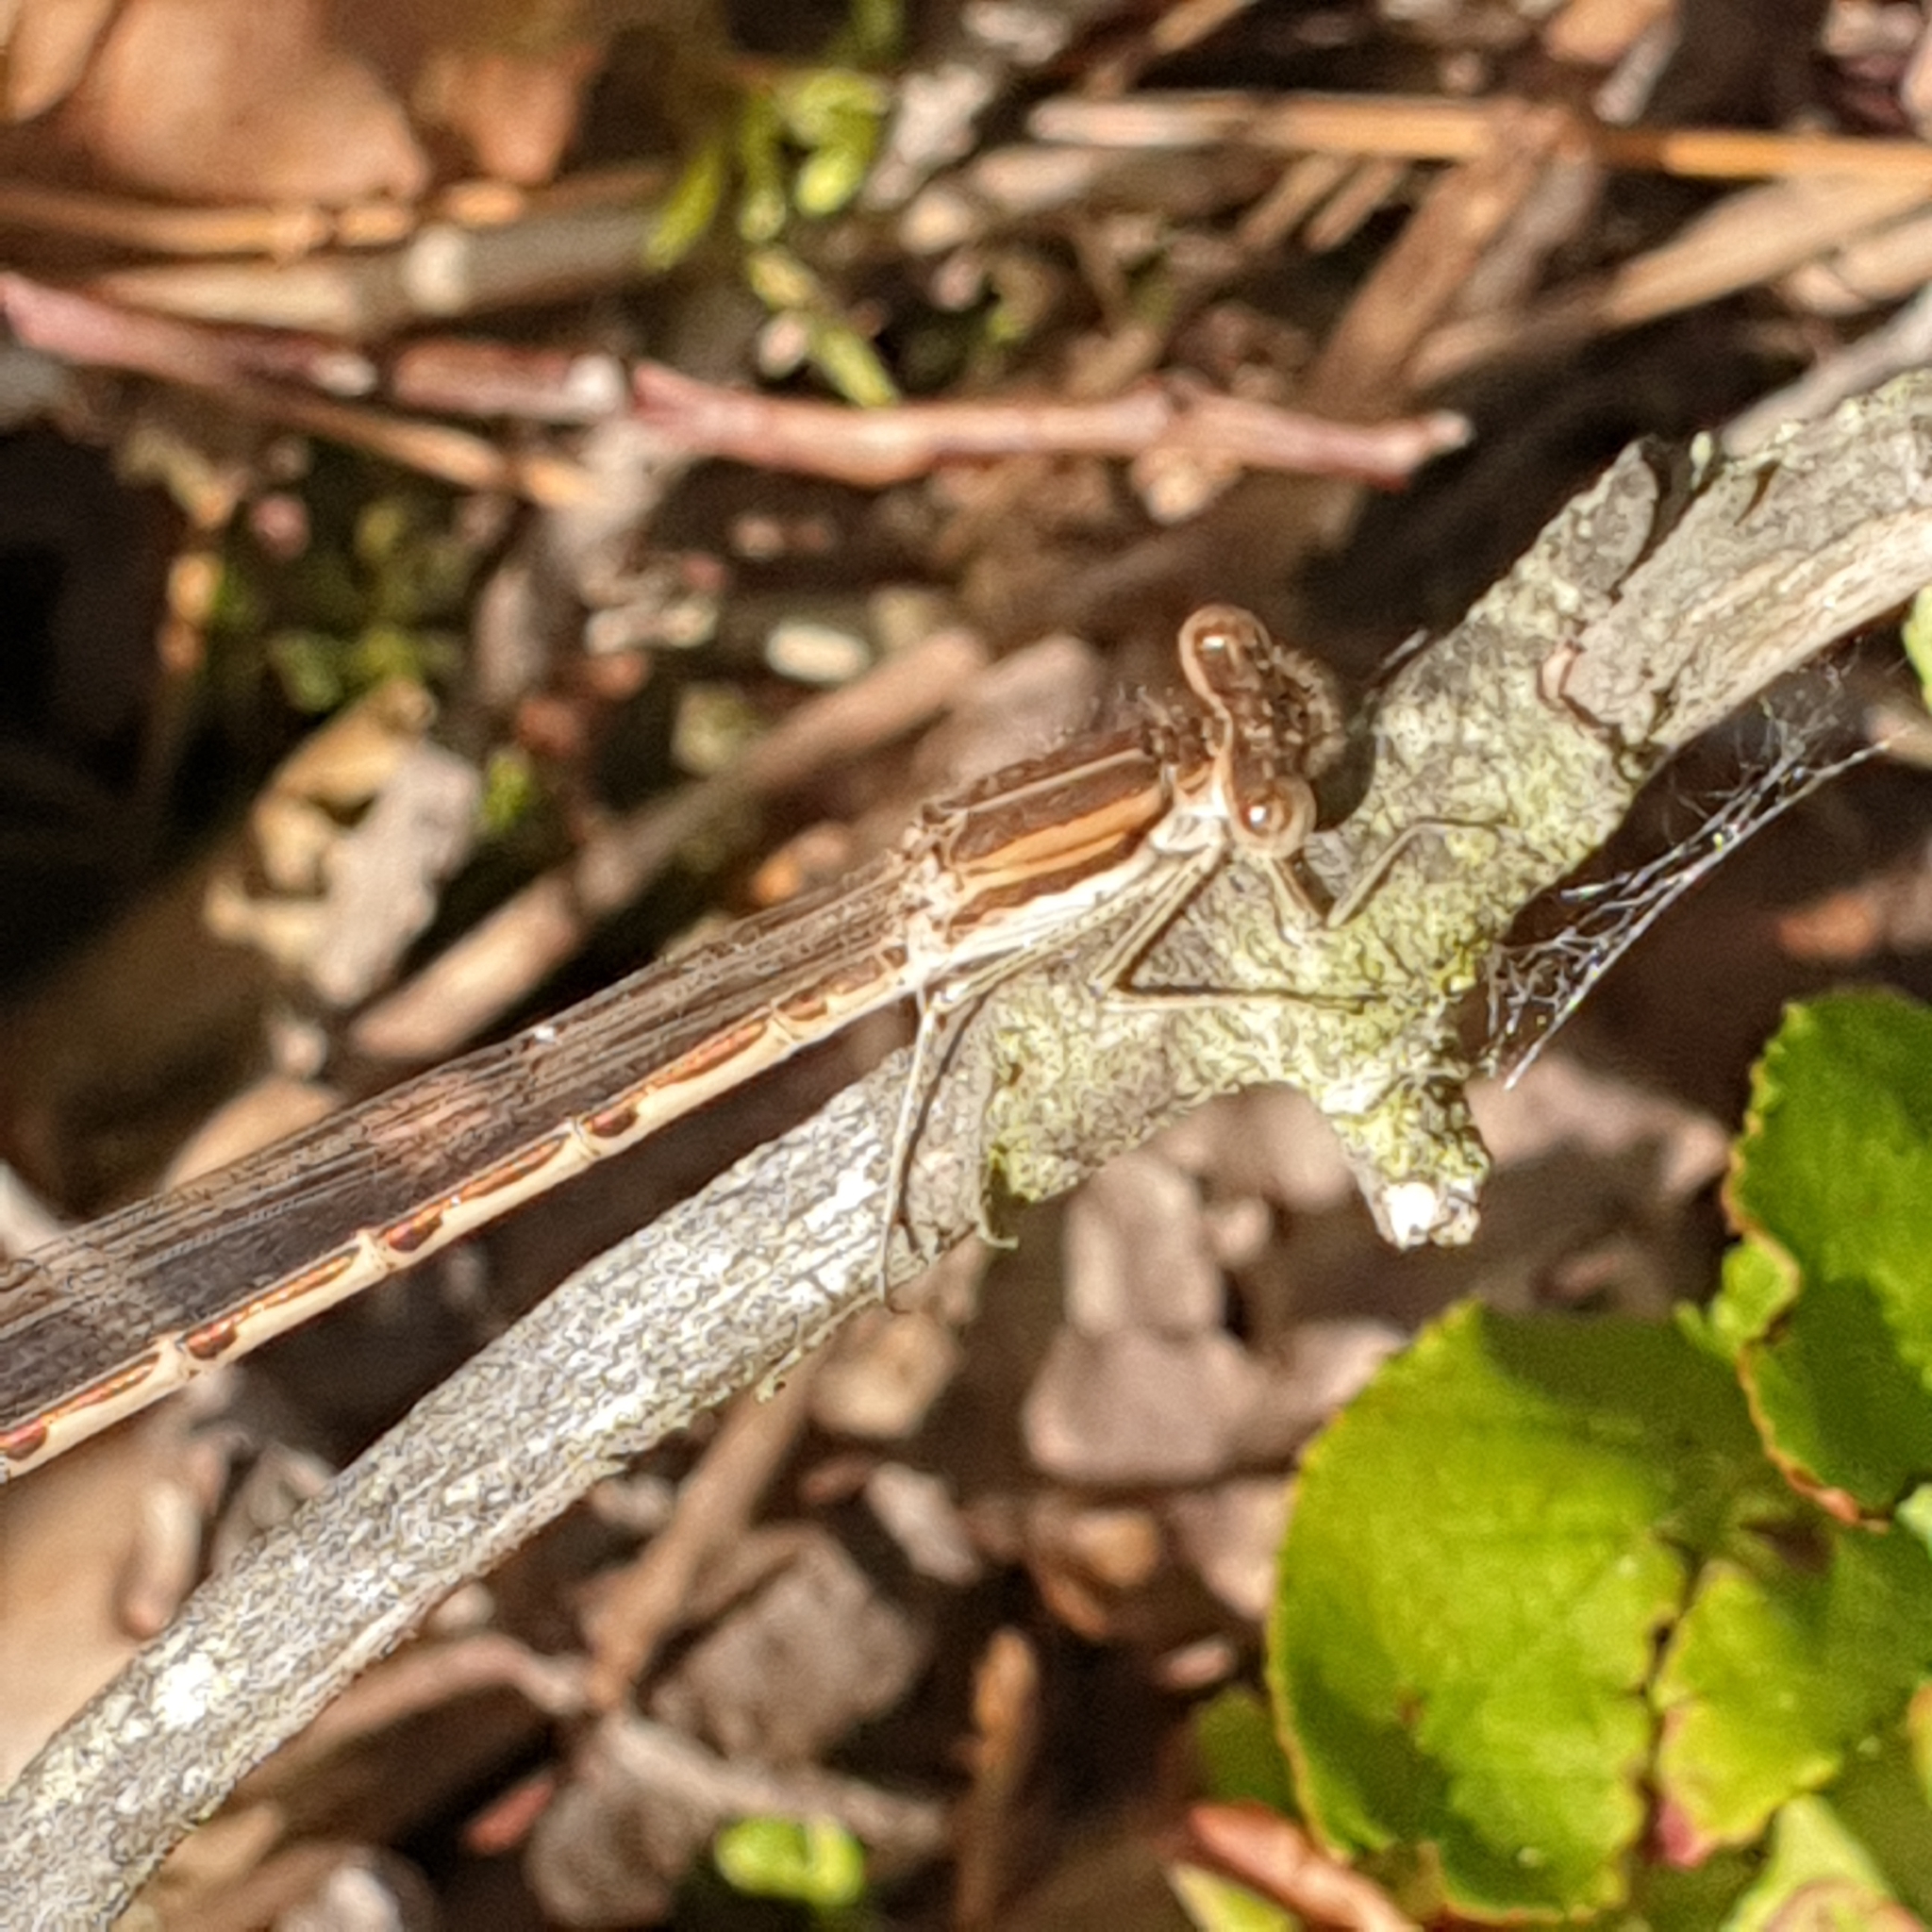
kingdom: Animalia
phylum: Arthropoda
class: Insecta
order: Odonata
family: Lestidae
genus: Sympecma
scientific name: Sympecma fusca
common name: Common winter damsel
